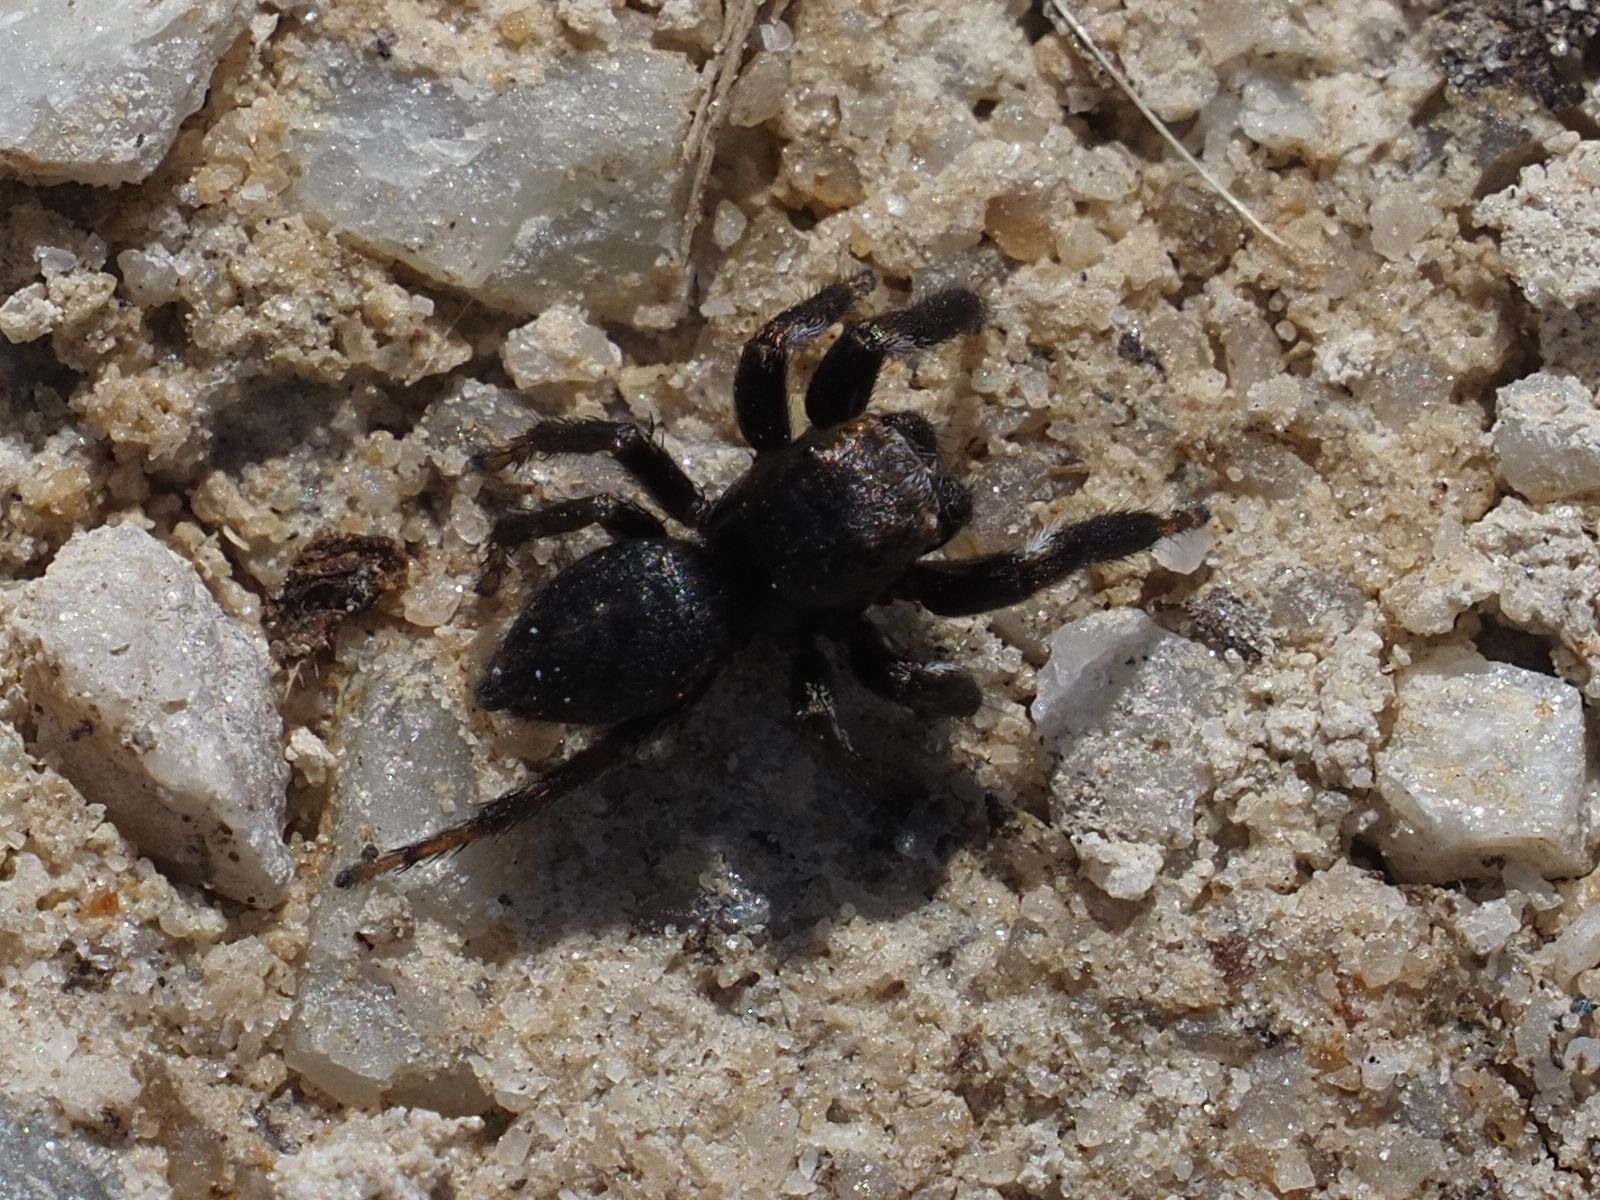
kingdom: Animalia
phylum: Arthropoda
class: Arachnida
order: Araneae
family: Salticidae
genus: Evarcha
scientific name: Evarcha arcuata
